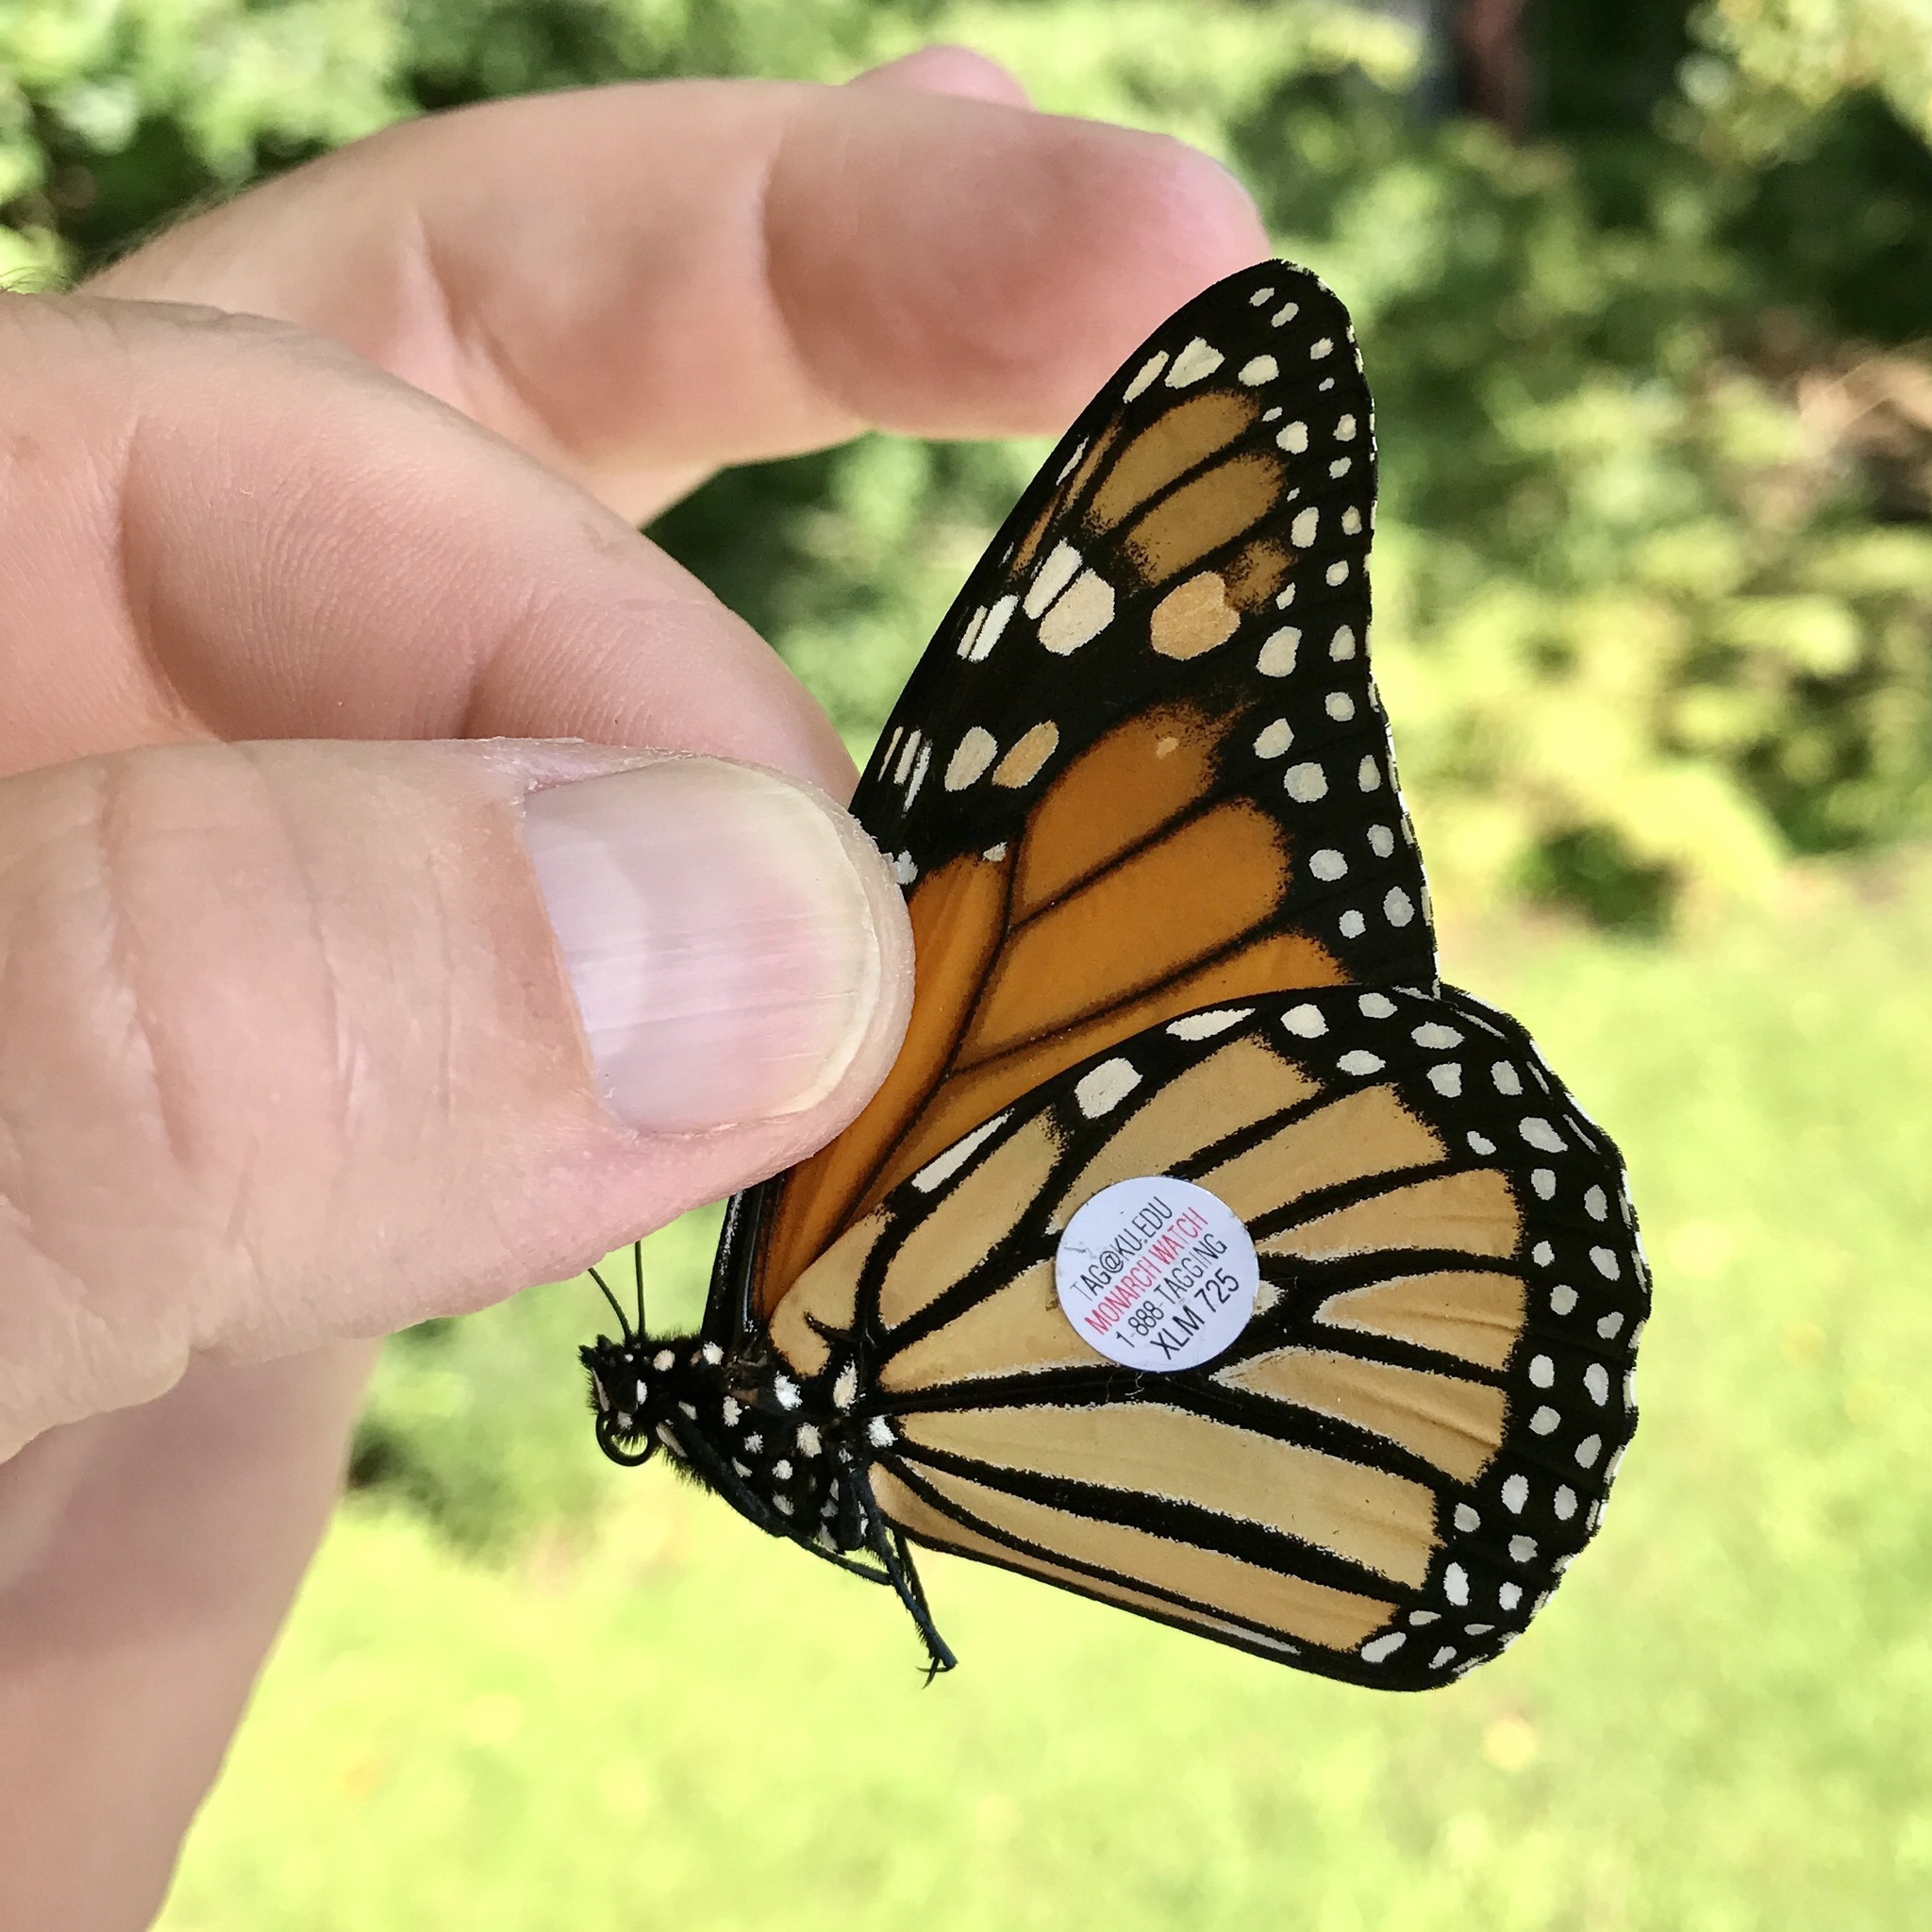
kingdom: Animalia
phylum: Arthropoda
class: Insecta
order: Lepidoptera
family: Nymphalidae
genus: Danaus
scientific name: Danaus plexippus
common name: Monarch
